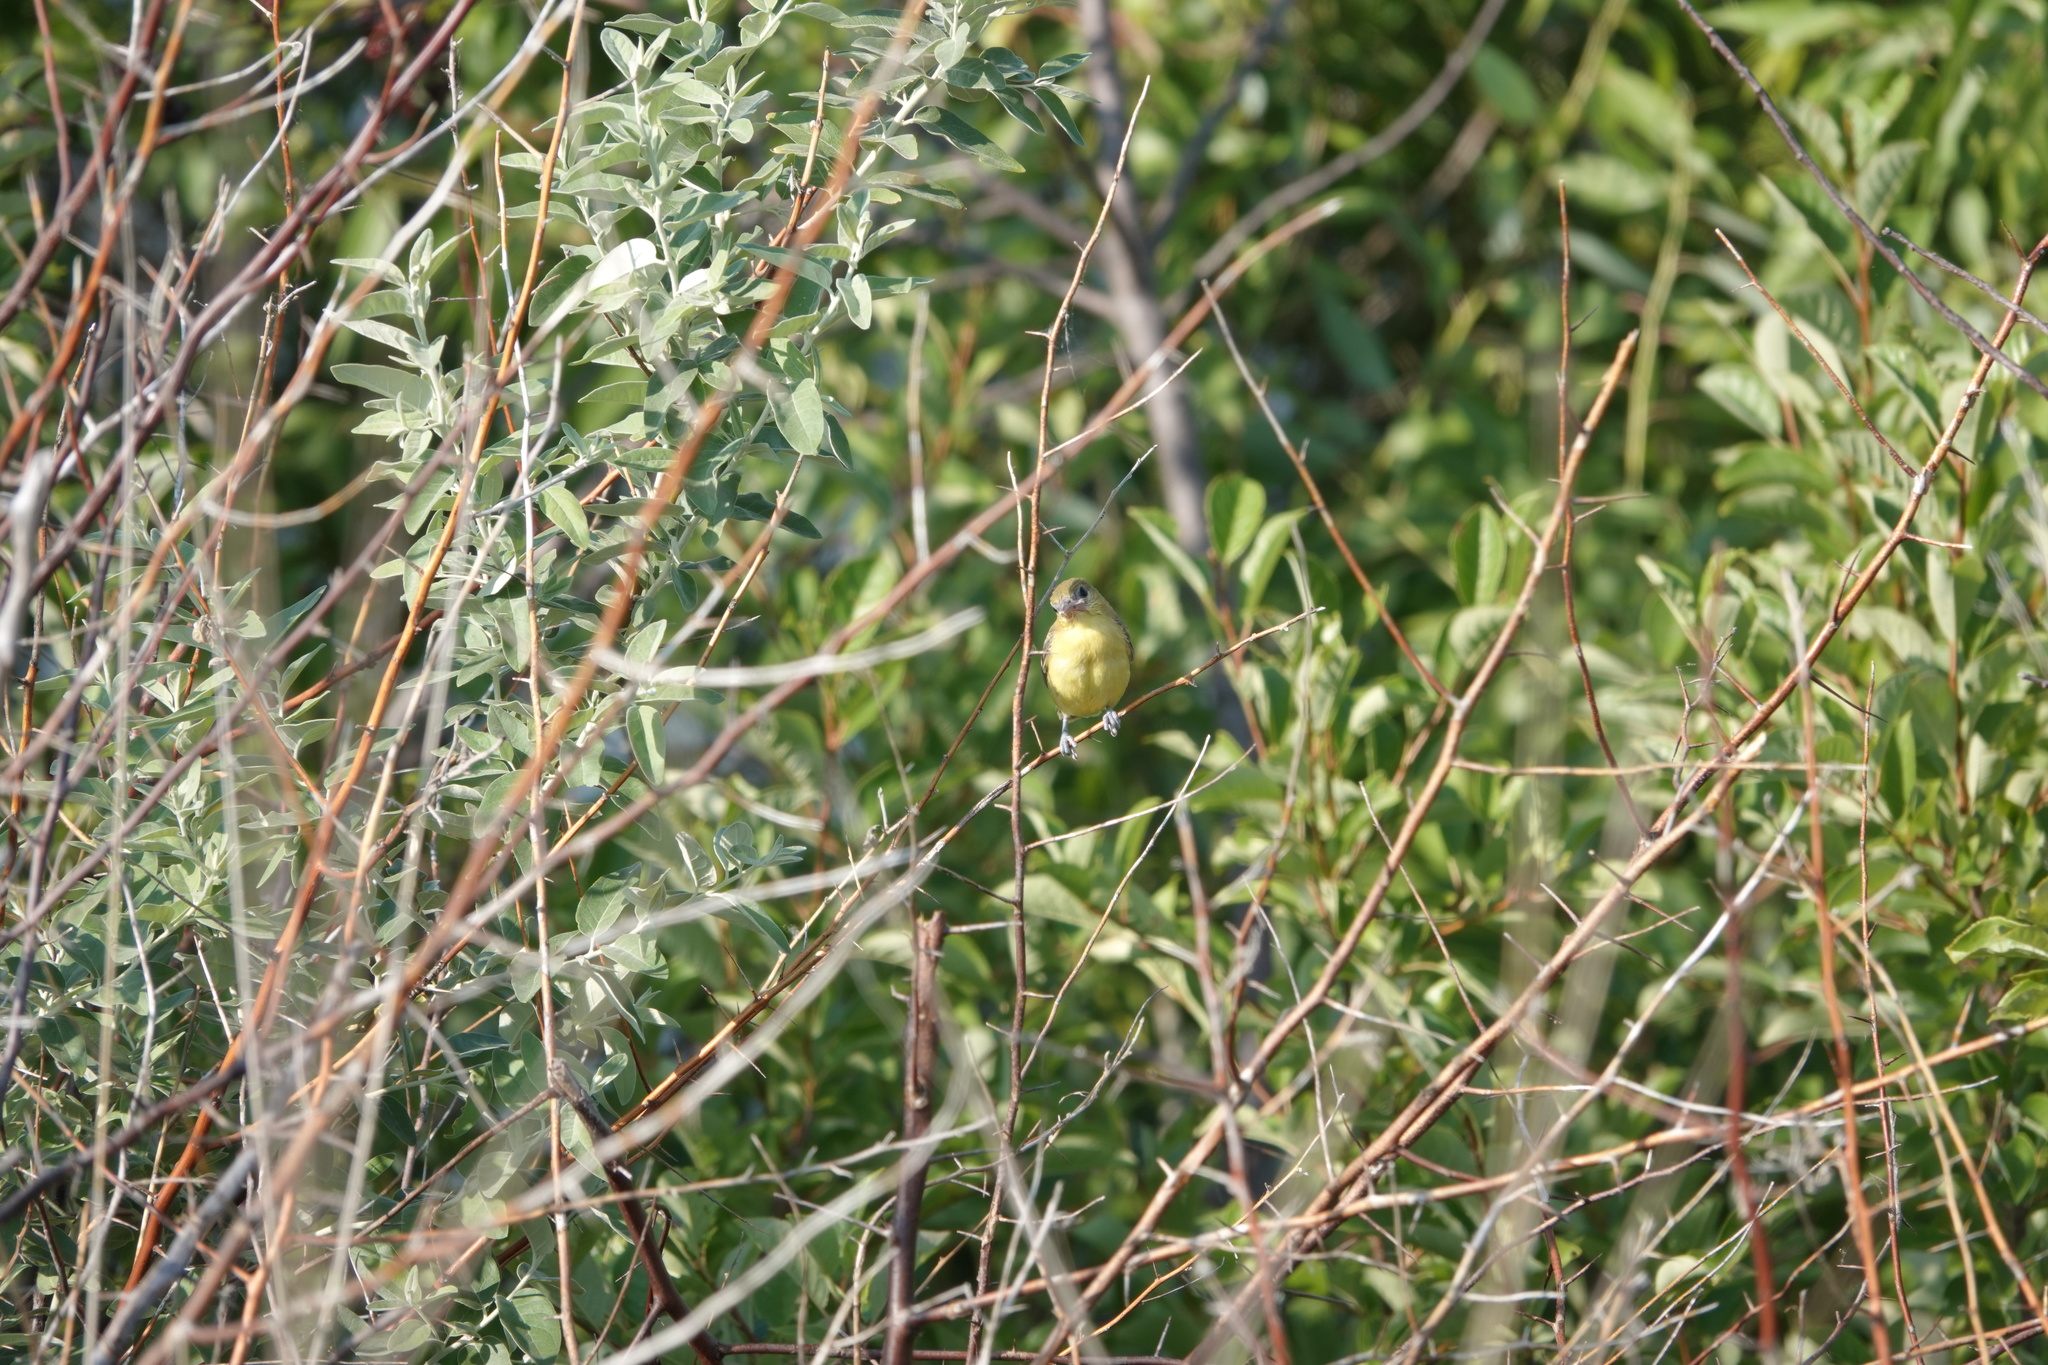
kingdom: Animalia
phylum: Chordata
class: Aves
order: Passeriformes
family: Icteridae
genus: Icterus
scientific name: Icterus spurius
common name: Orchard oriole
